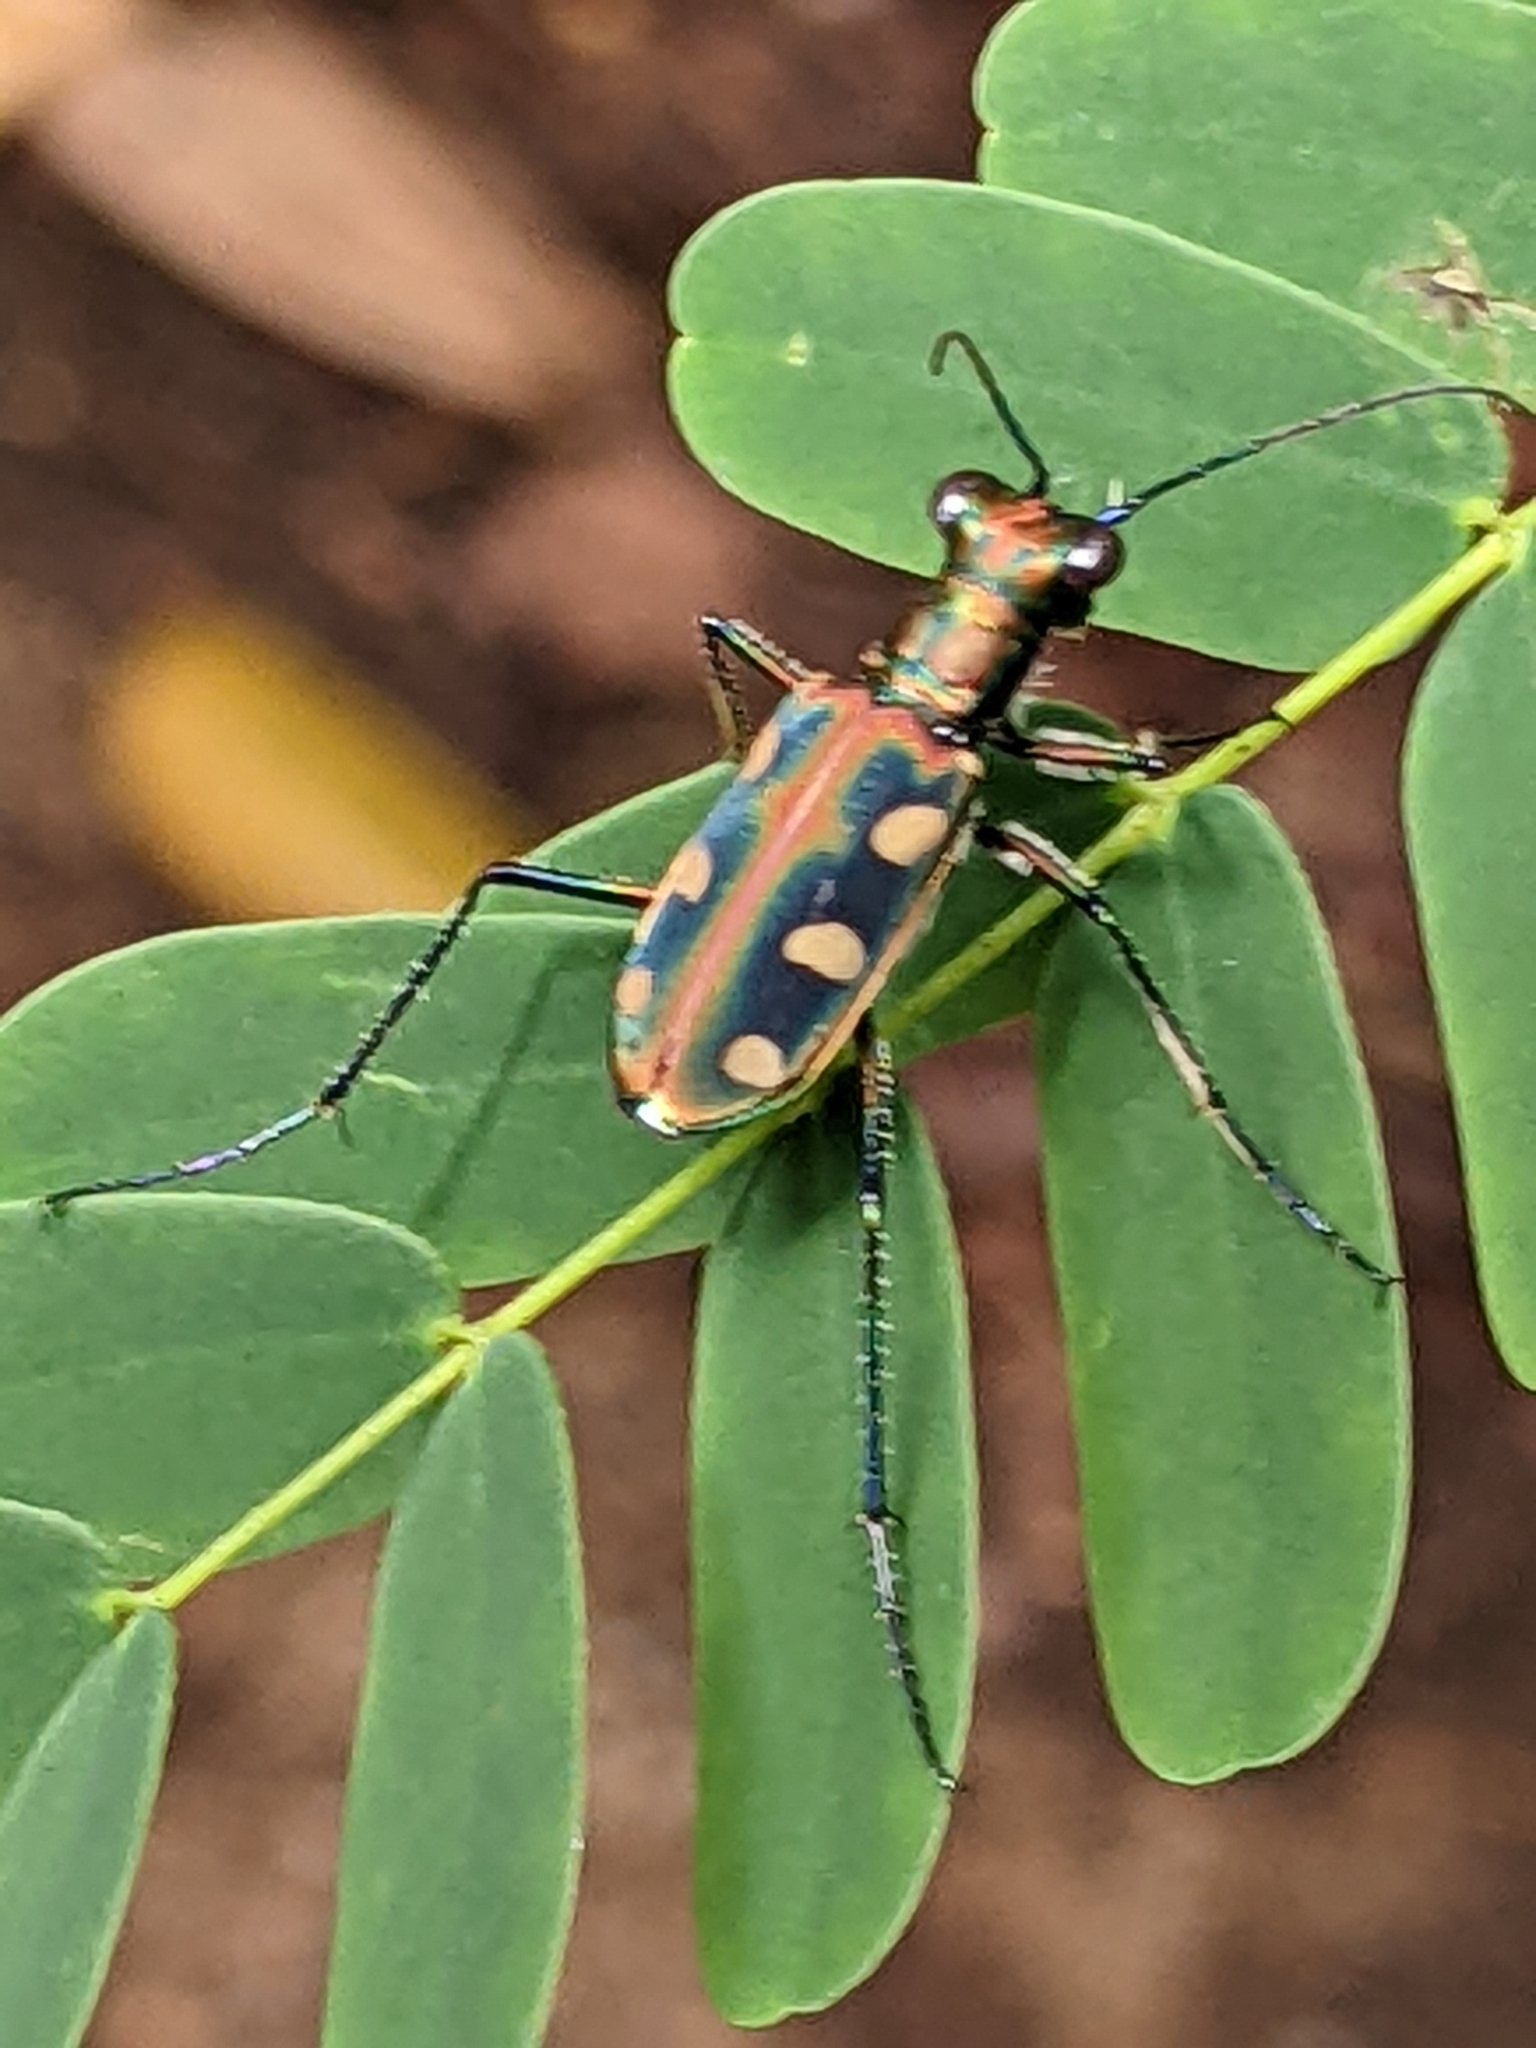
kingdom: Animalia
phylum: Arthropoda
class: Insecta
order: Coleoptera
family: Carabidae
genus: Cicindela
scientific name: Cicindela aurulenta
